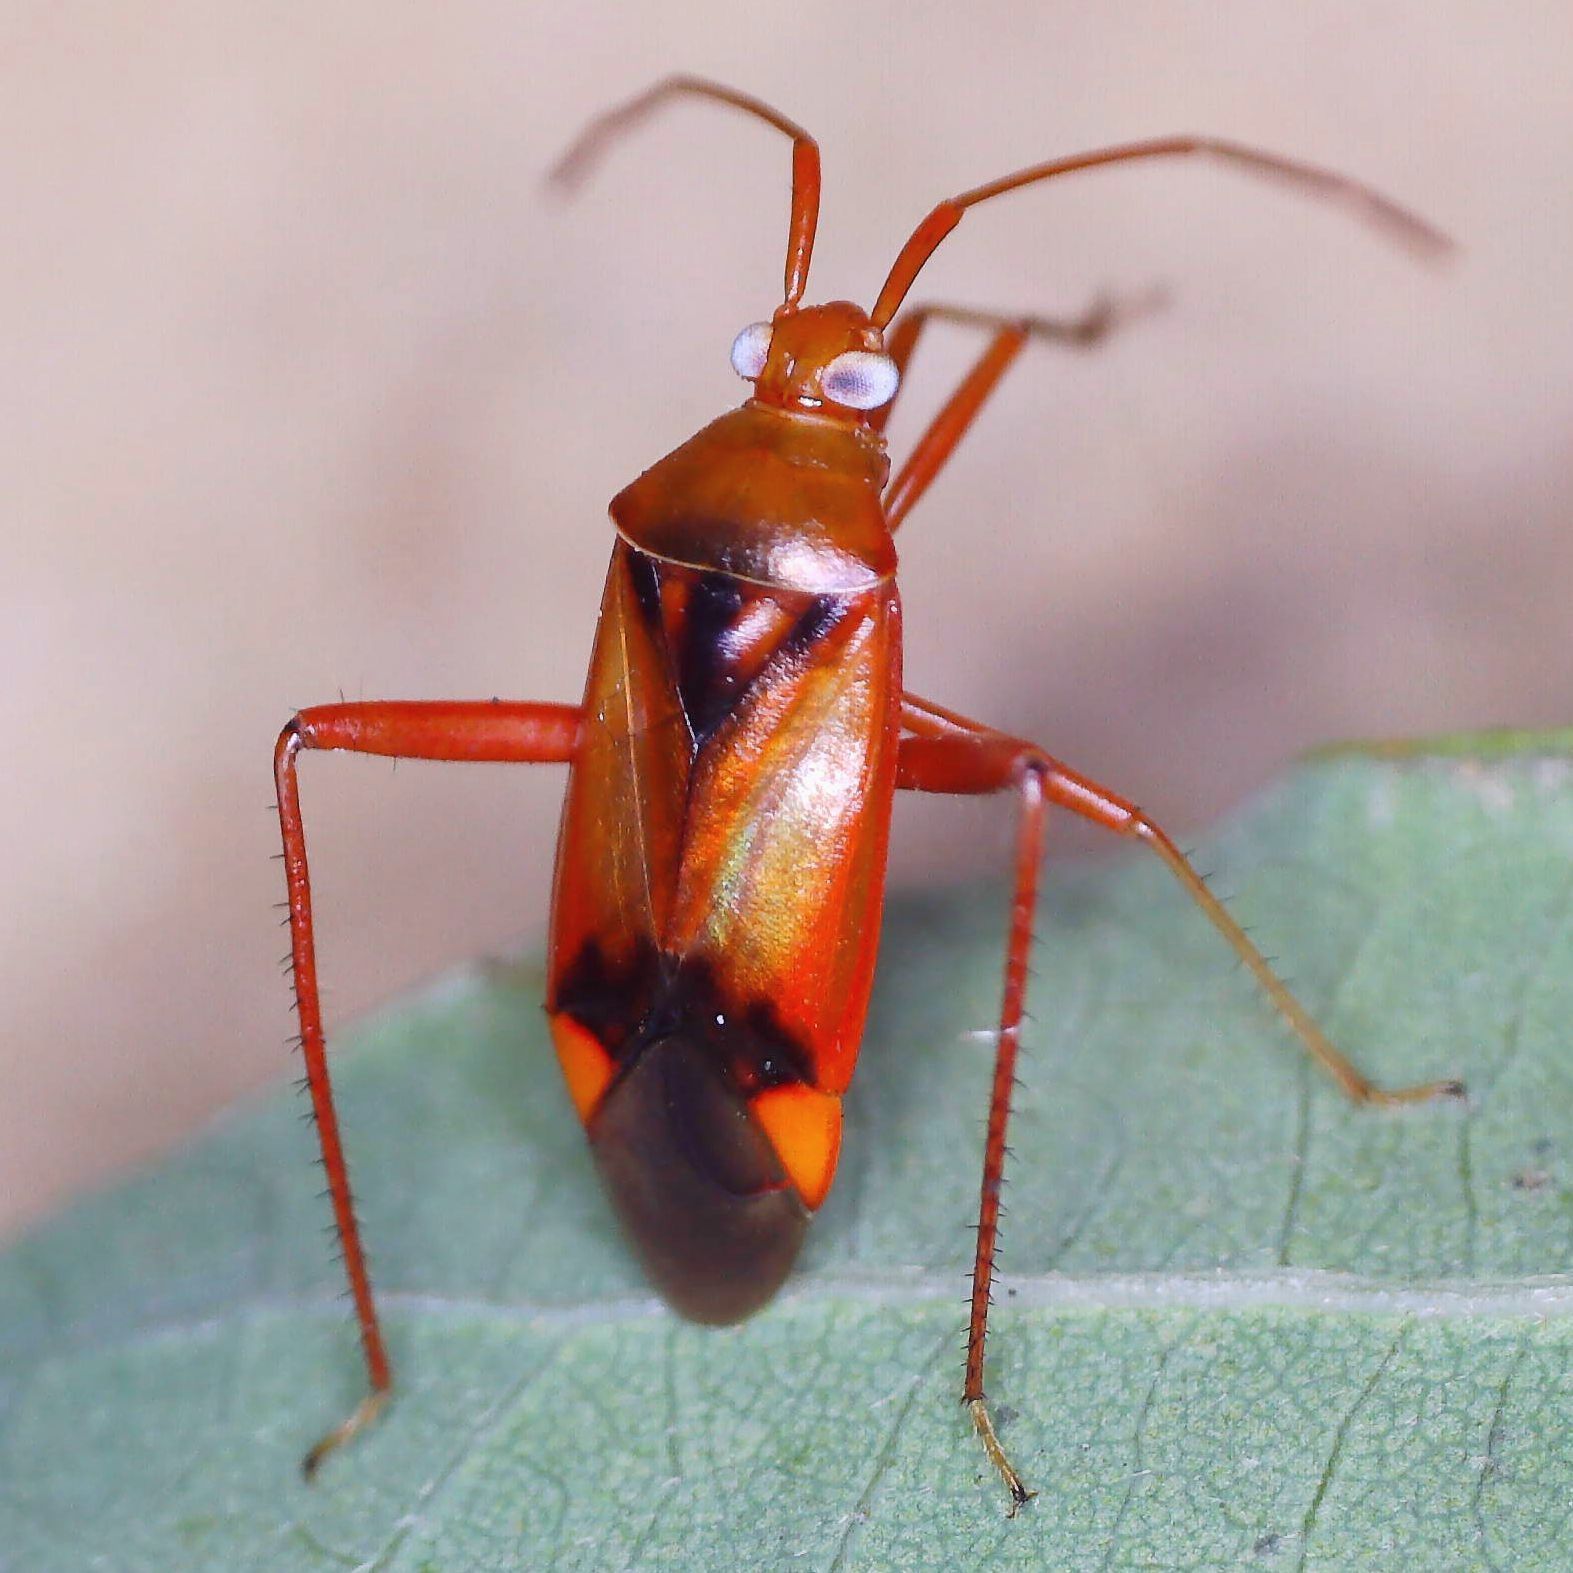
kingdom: Animalia
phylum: Arthropoda
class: Insecta
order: Hemiptera
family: Miridae
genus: Megacoelum
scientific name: Megacoelum infusum
